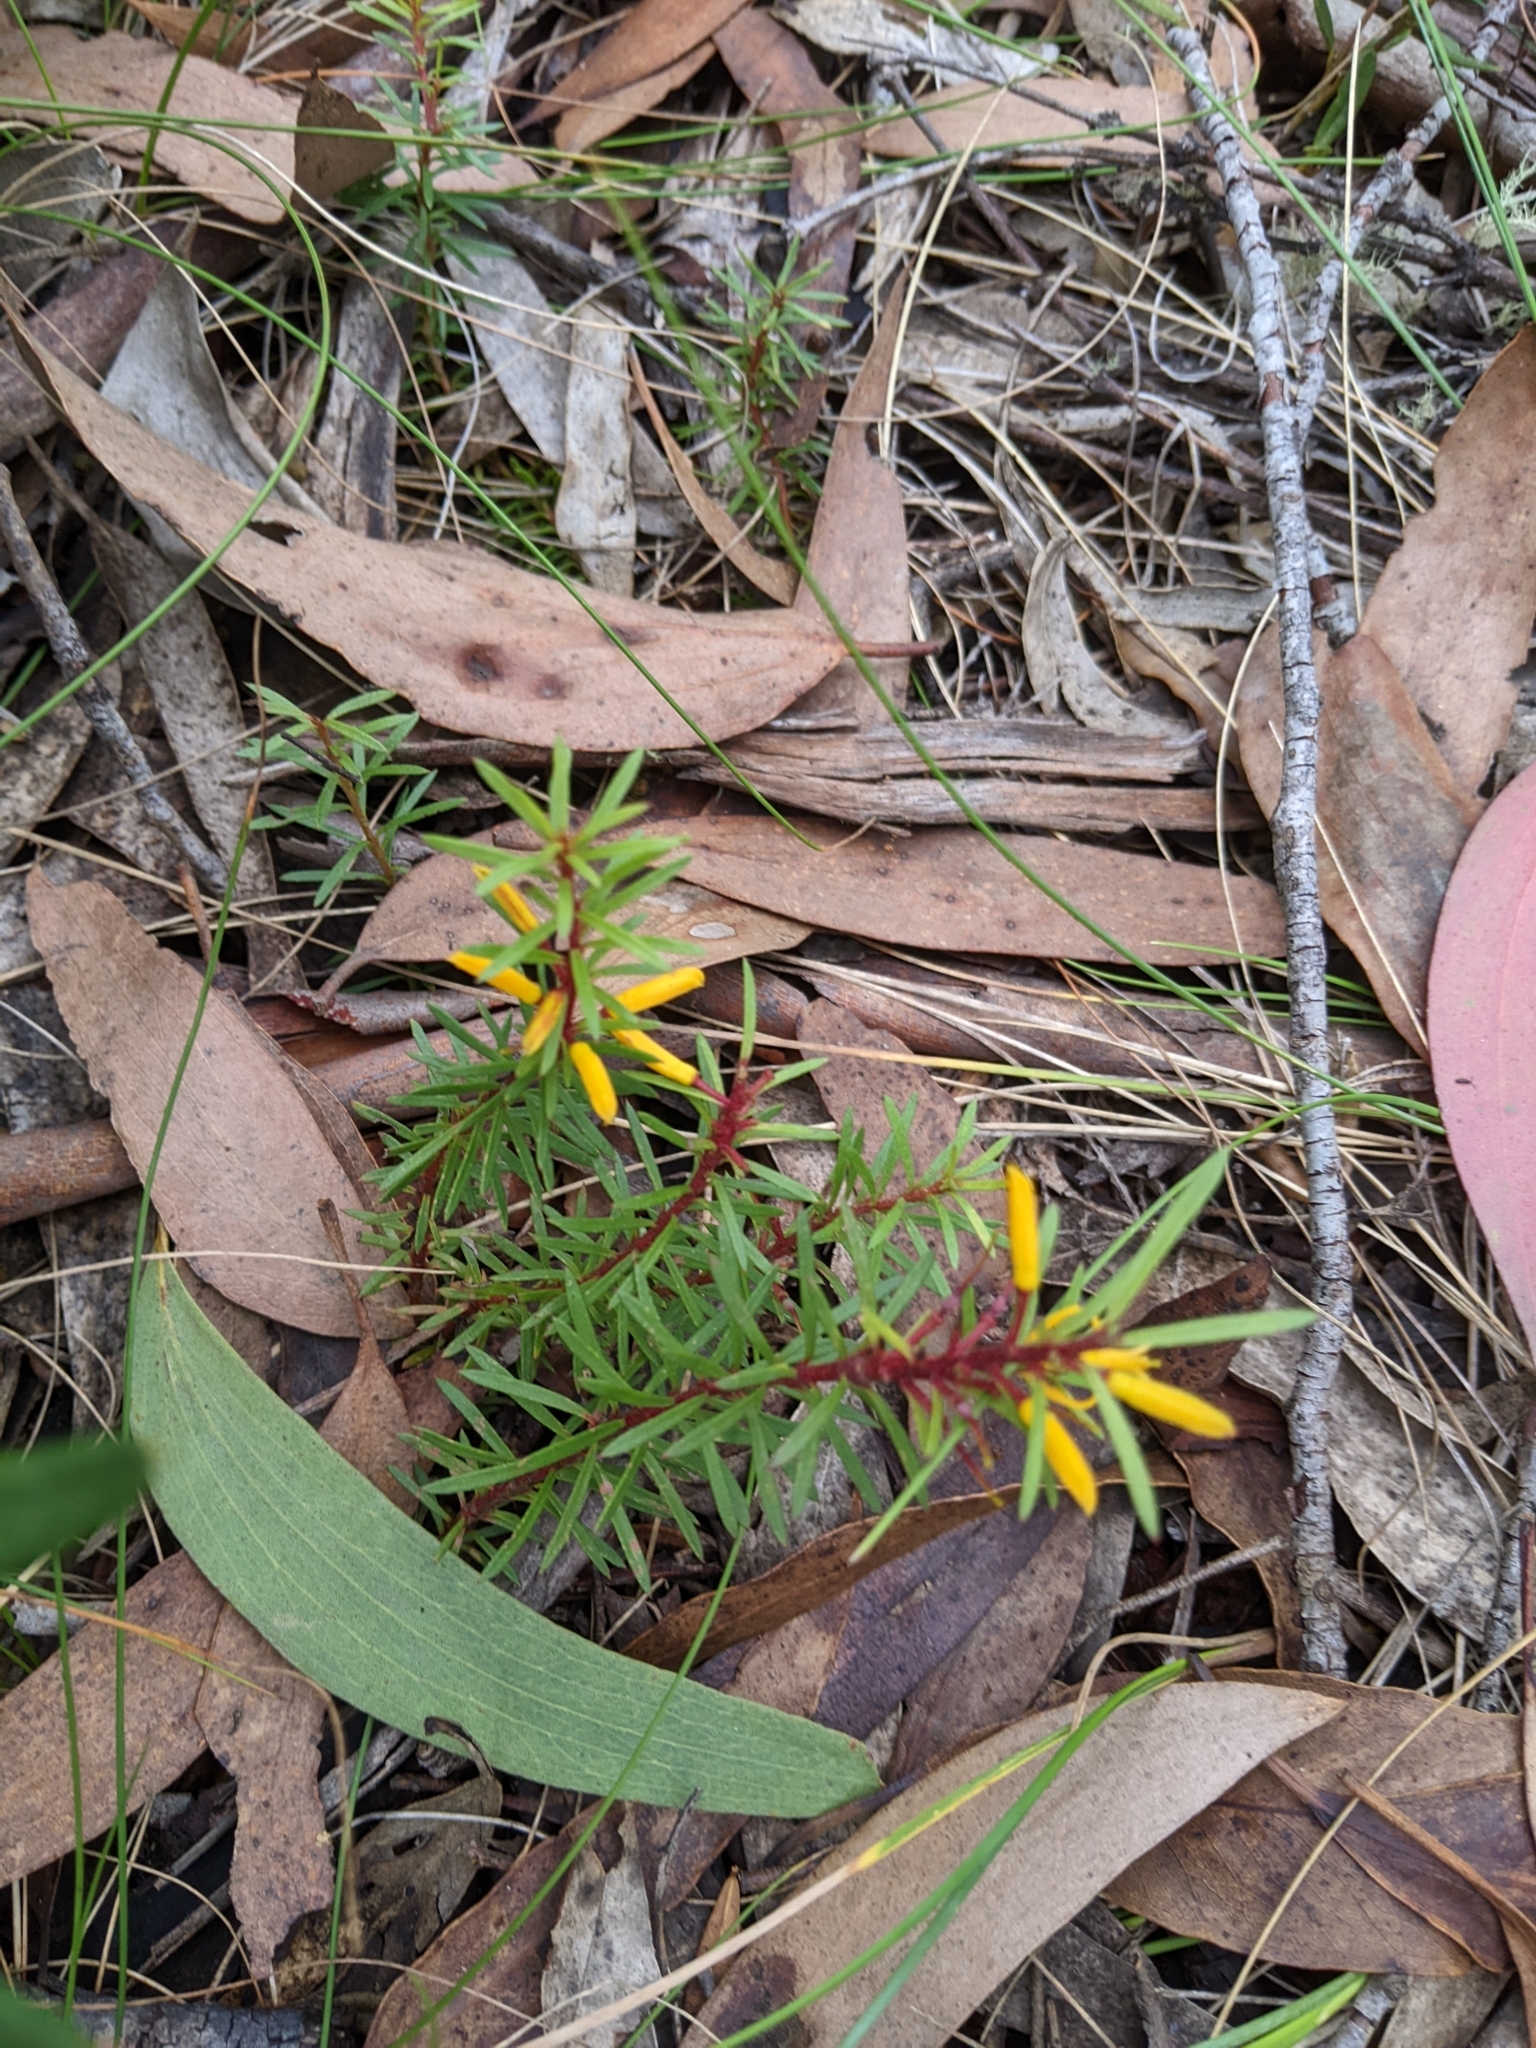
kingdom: Plantae
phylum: Tracheophyta
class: Magnoliopsida
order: Proteales
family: Proteaceae
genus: Persoonia
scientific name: Persoonia chamaepeuce
